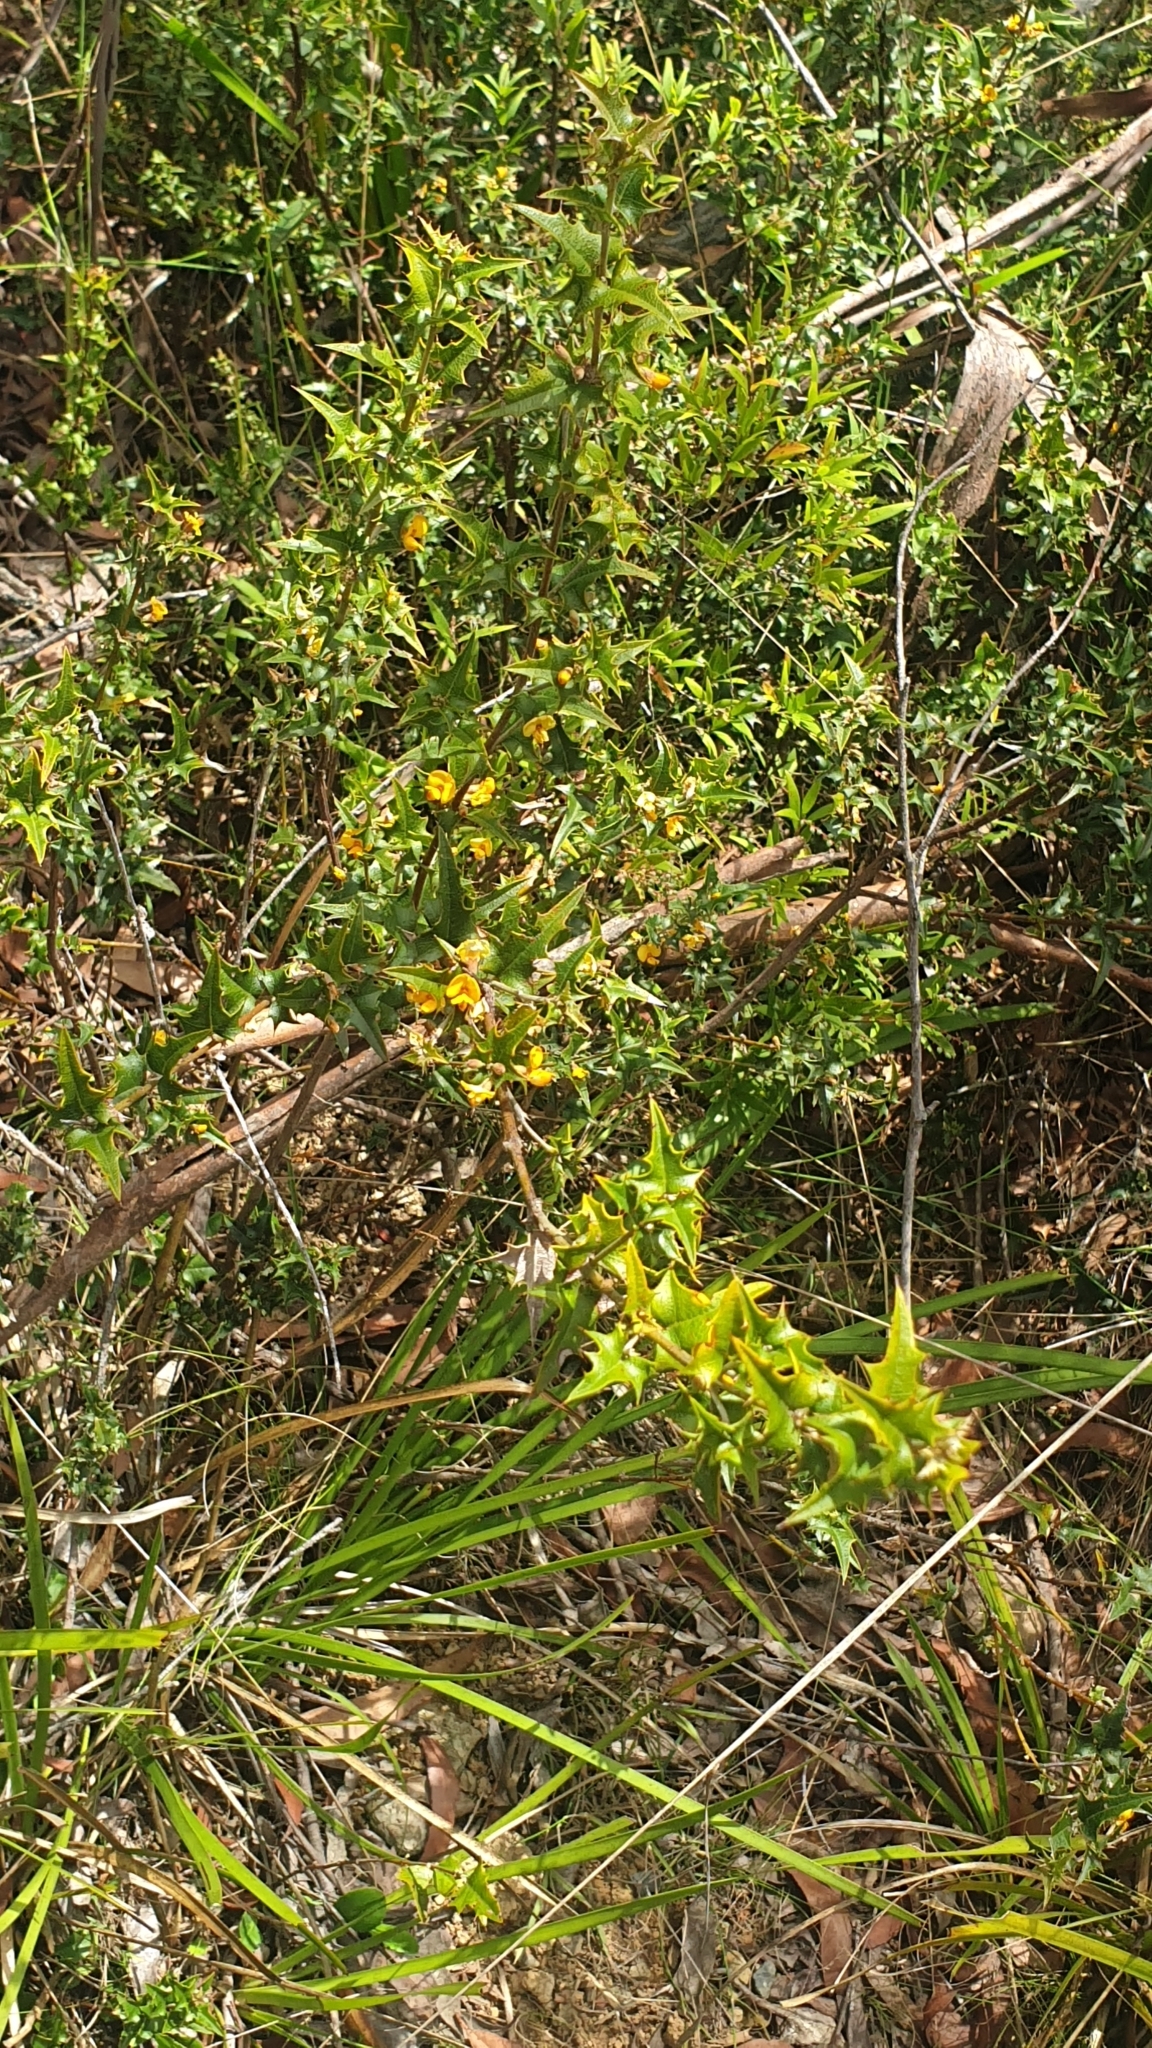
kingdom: Plantae
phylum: Tracheophyta
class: Magnoliopsida
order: Fabales
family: Fabaceae
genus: Podolobium
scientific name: Podolobium ilicifolium
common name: Native holly
